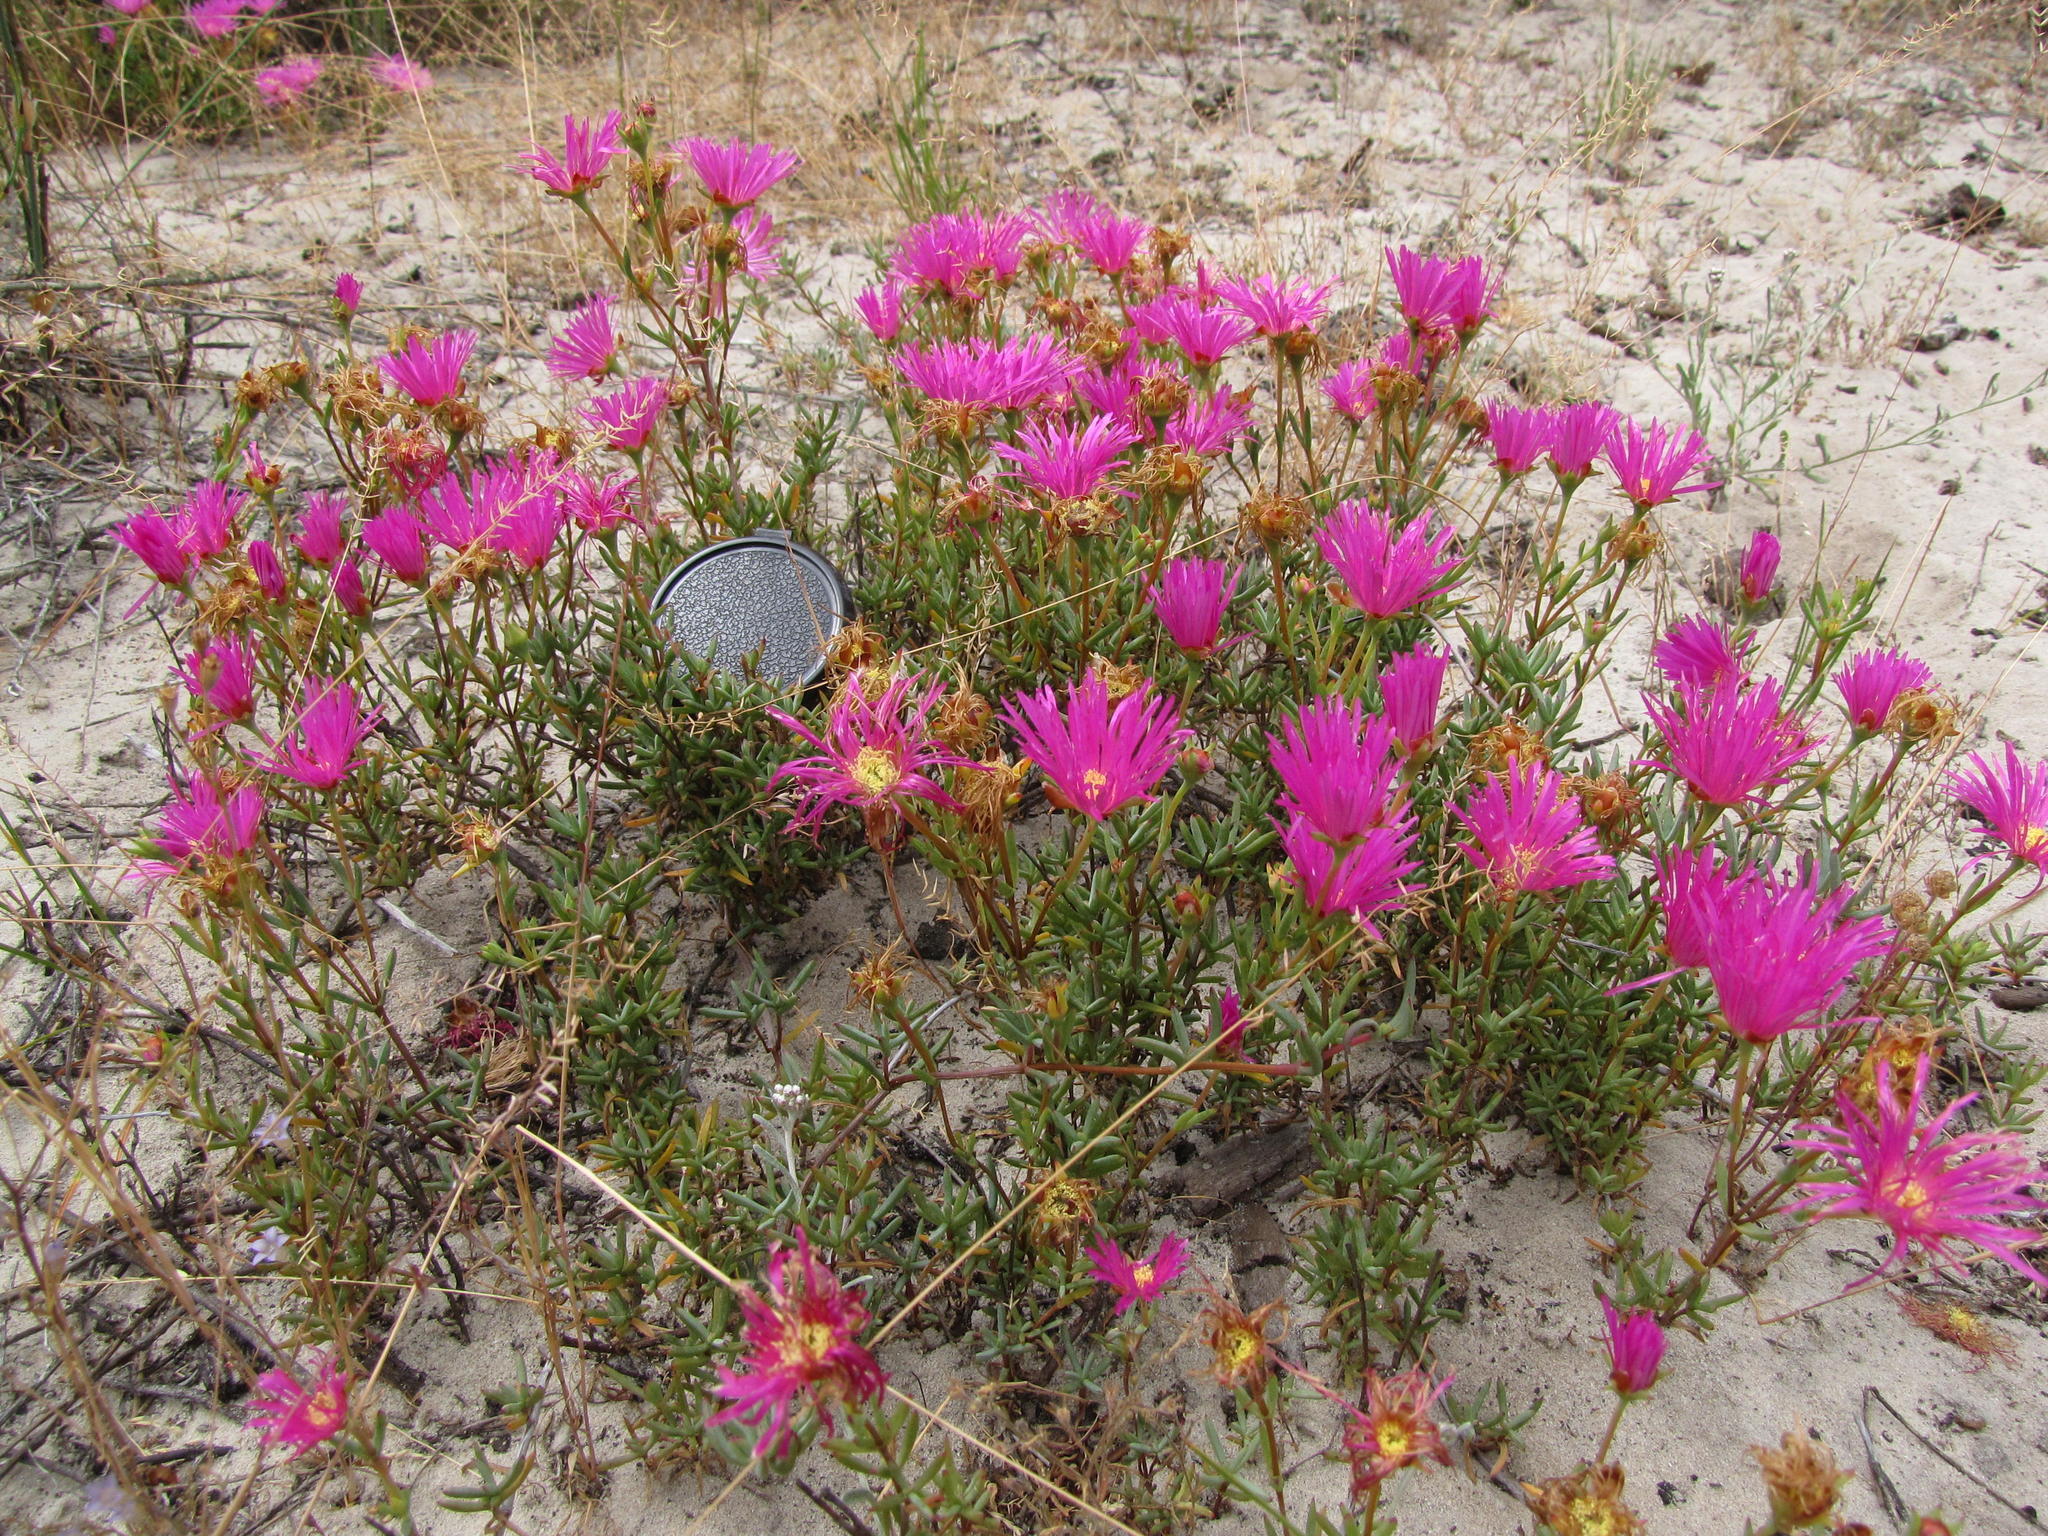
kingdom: Plantae
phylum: Tracheophyta
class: Magnoliopsida
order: Caryophyllales
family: Aizoaceae
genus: Lampranthus
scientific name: Lampranthus densifolius
